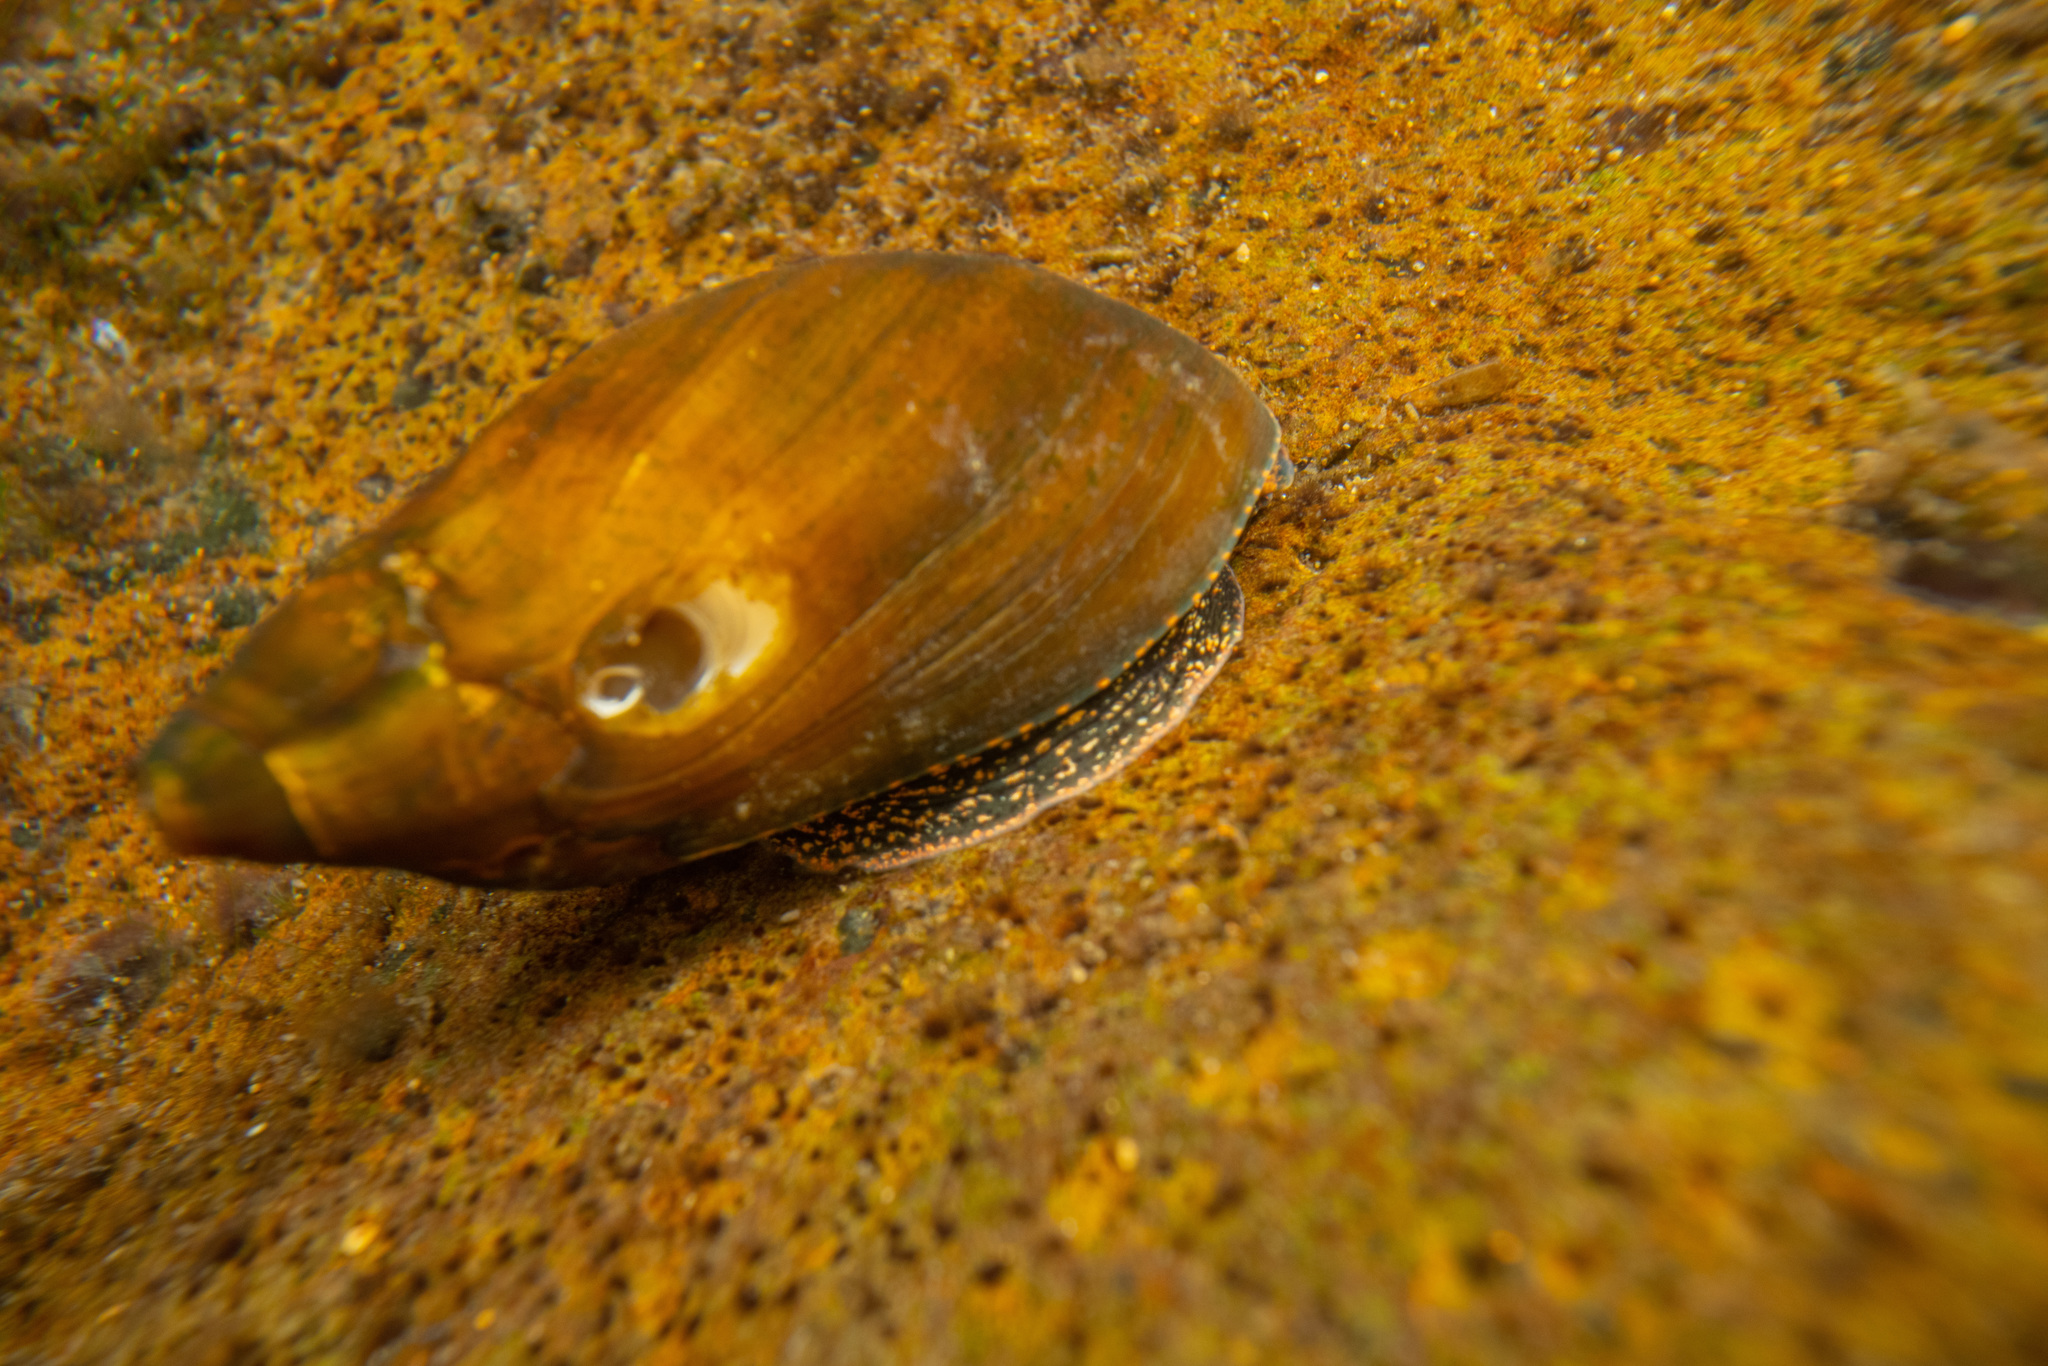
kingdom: Animalia
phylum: Mollusca
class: Gastropoda
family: Zemelanopsidae
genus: Zemelanopsis
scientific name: Zemelanopsis trifasciata
